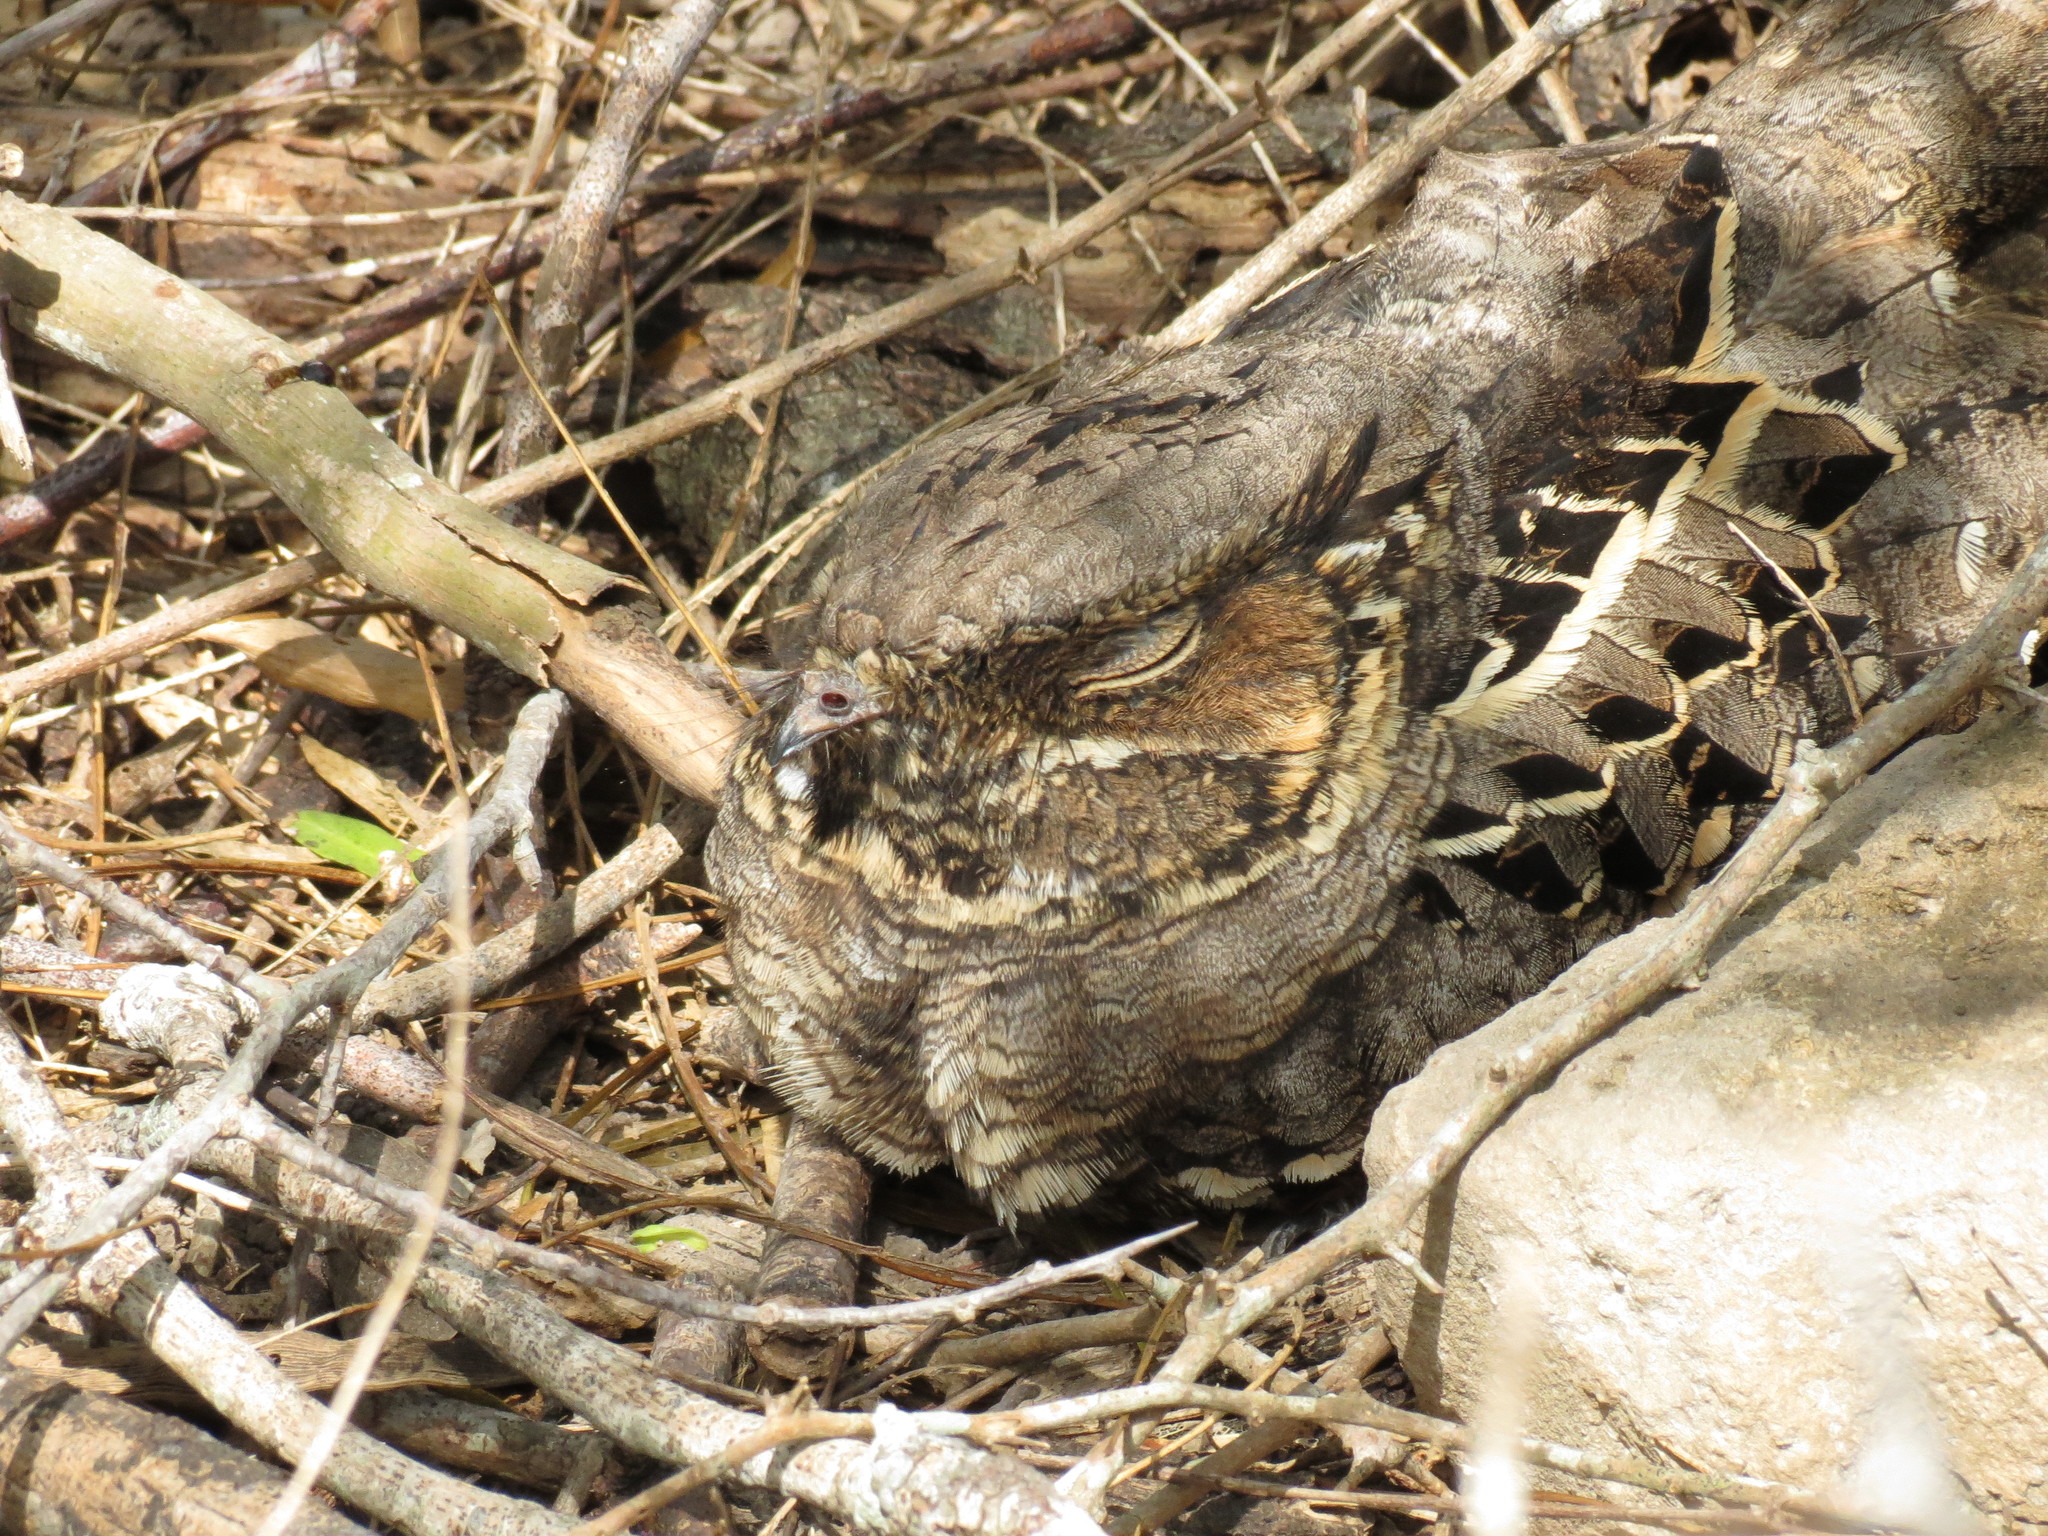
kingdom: Animalia
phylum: Chordata
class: Aves
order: Caprimulgiformes
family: Caprimulgidae
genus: Nyctidromus
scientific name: Nyctidromus albicollis
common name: Pauraque
